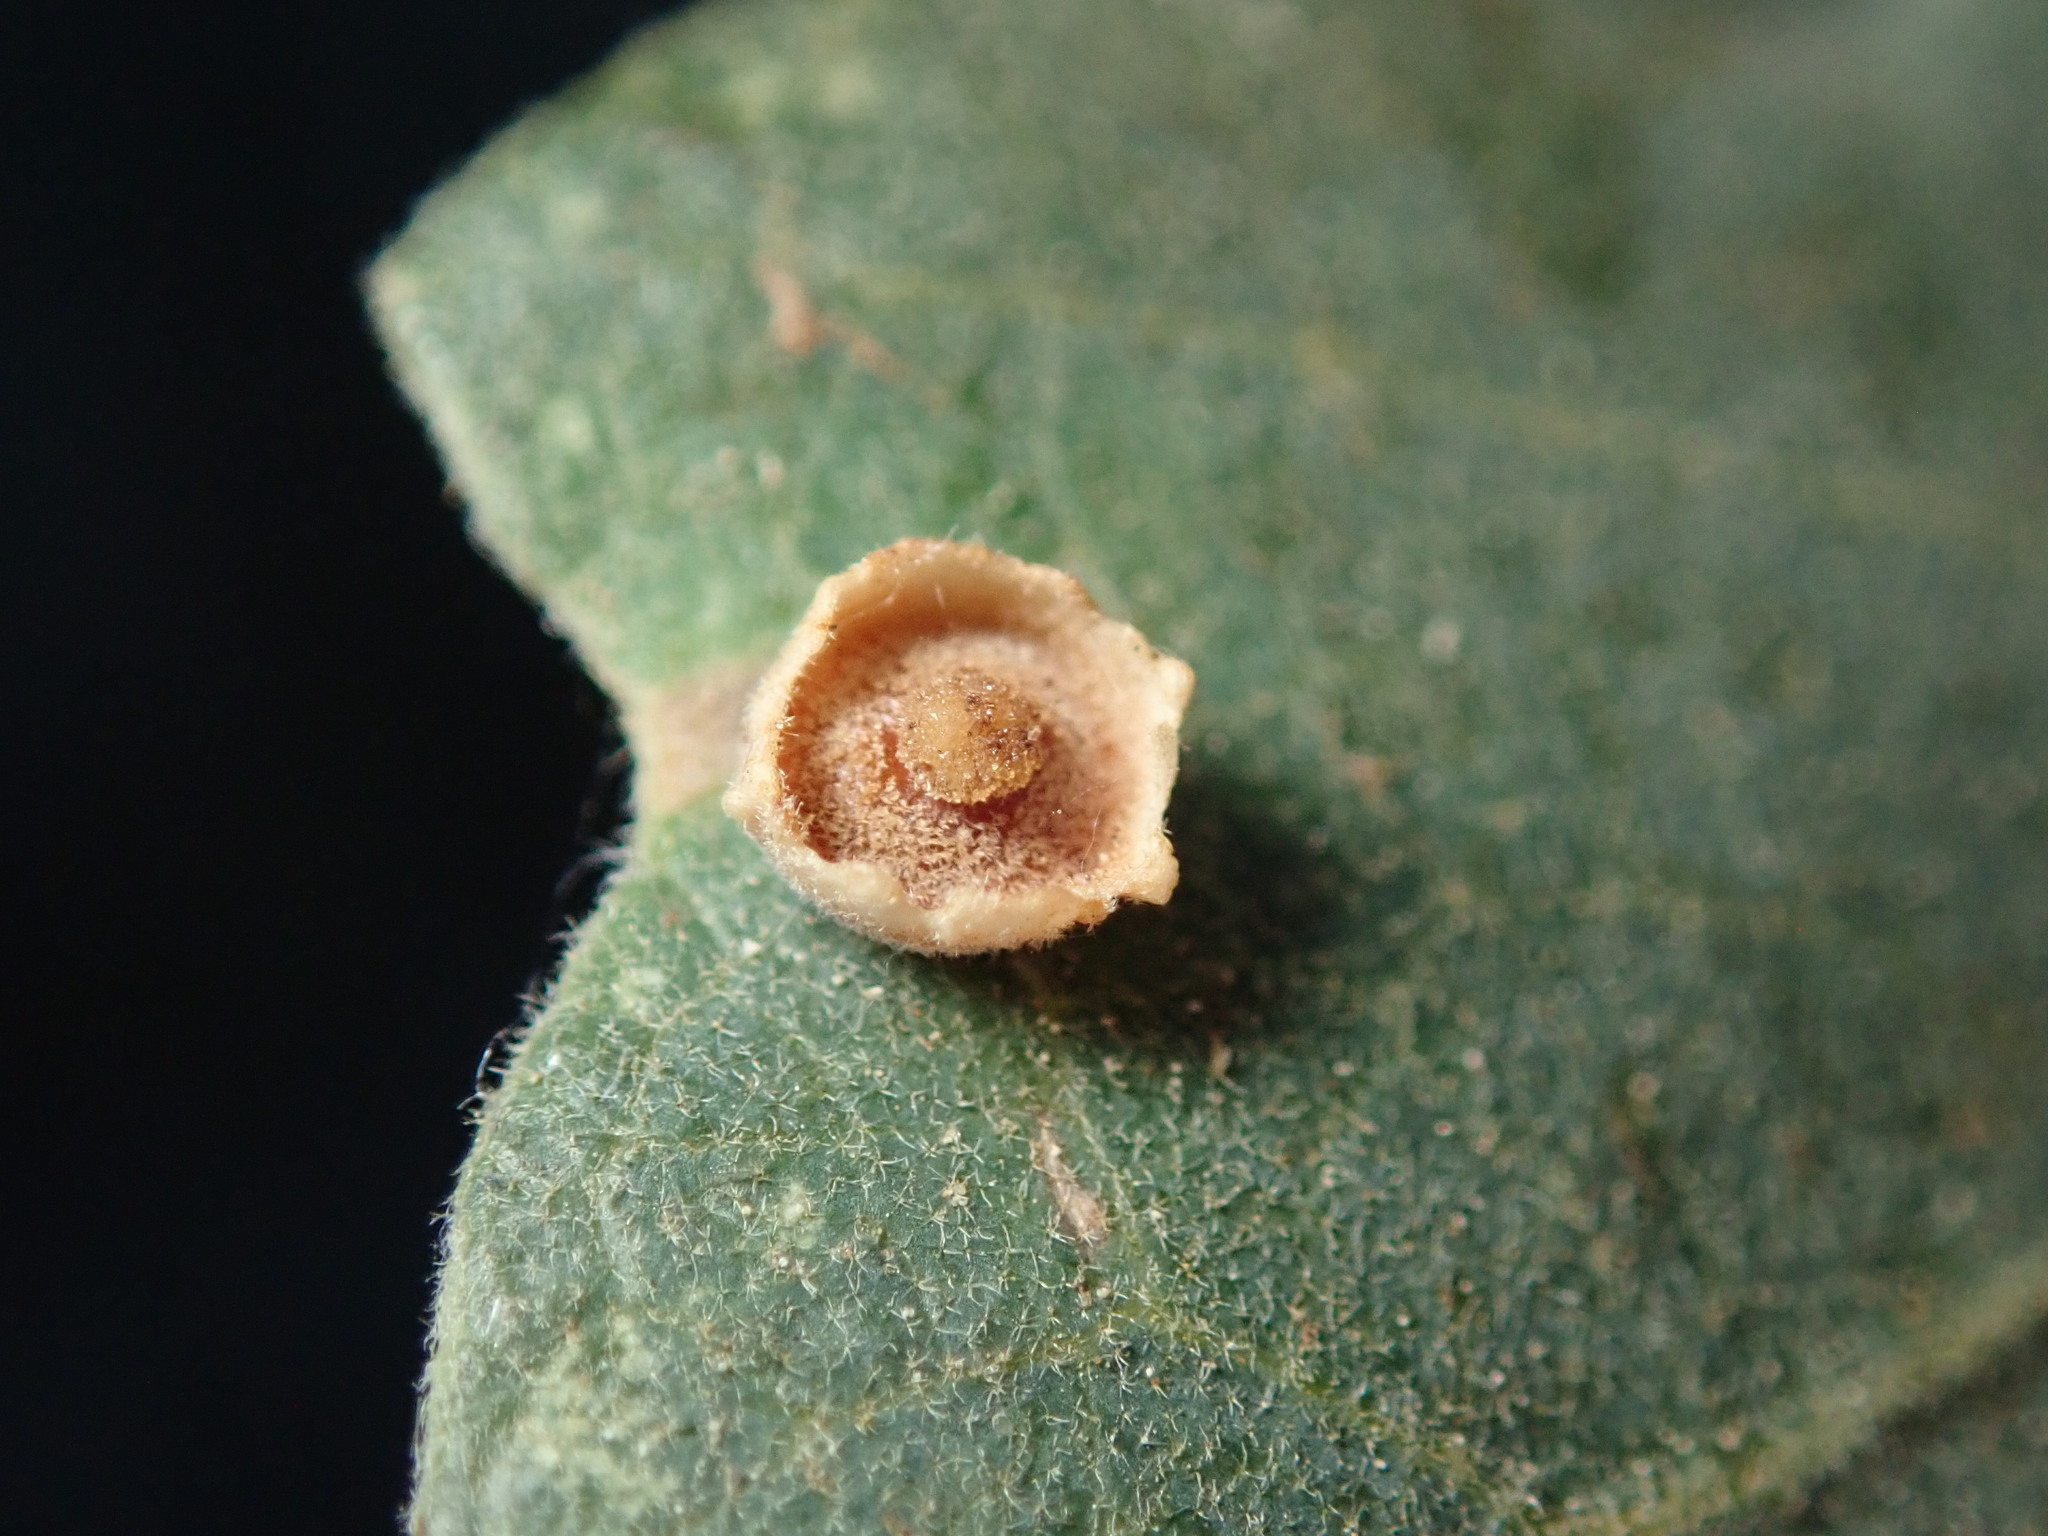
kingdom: Animalia
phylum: Arthropoda
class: Insecta
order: Hymenoptera
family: Cynipidae
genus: Andricus
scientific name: Andricus
